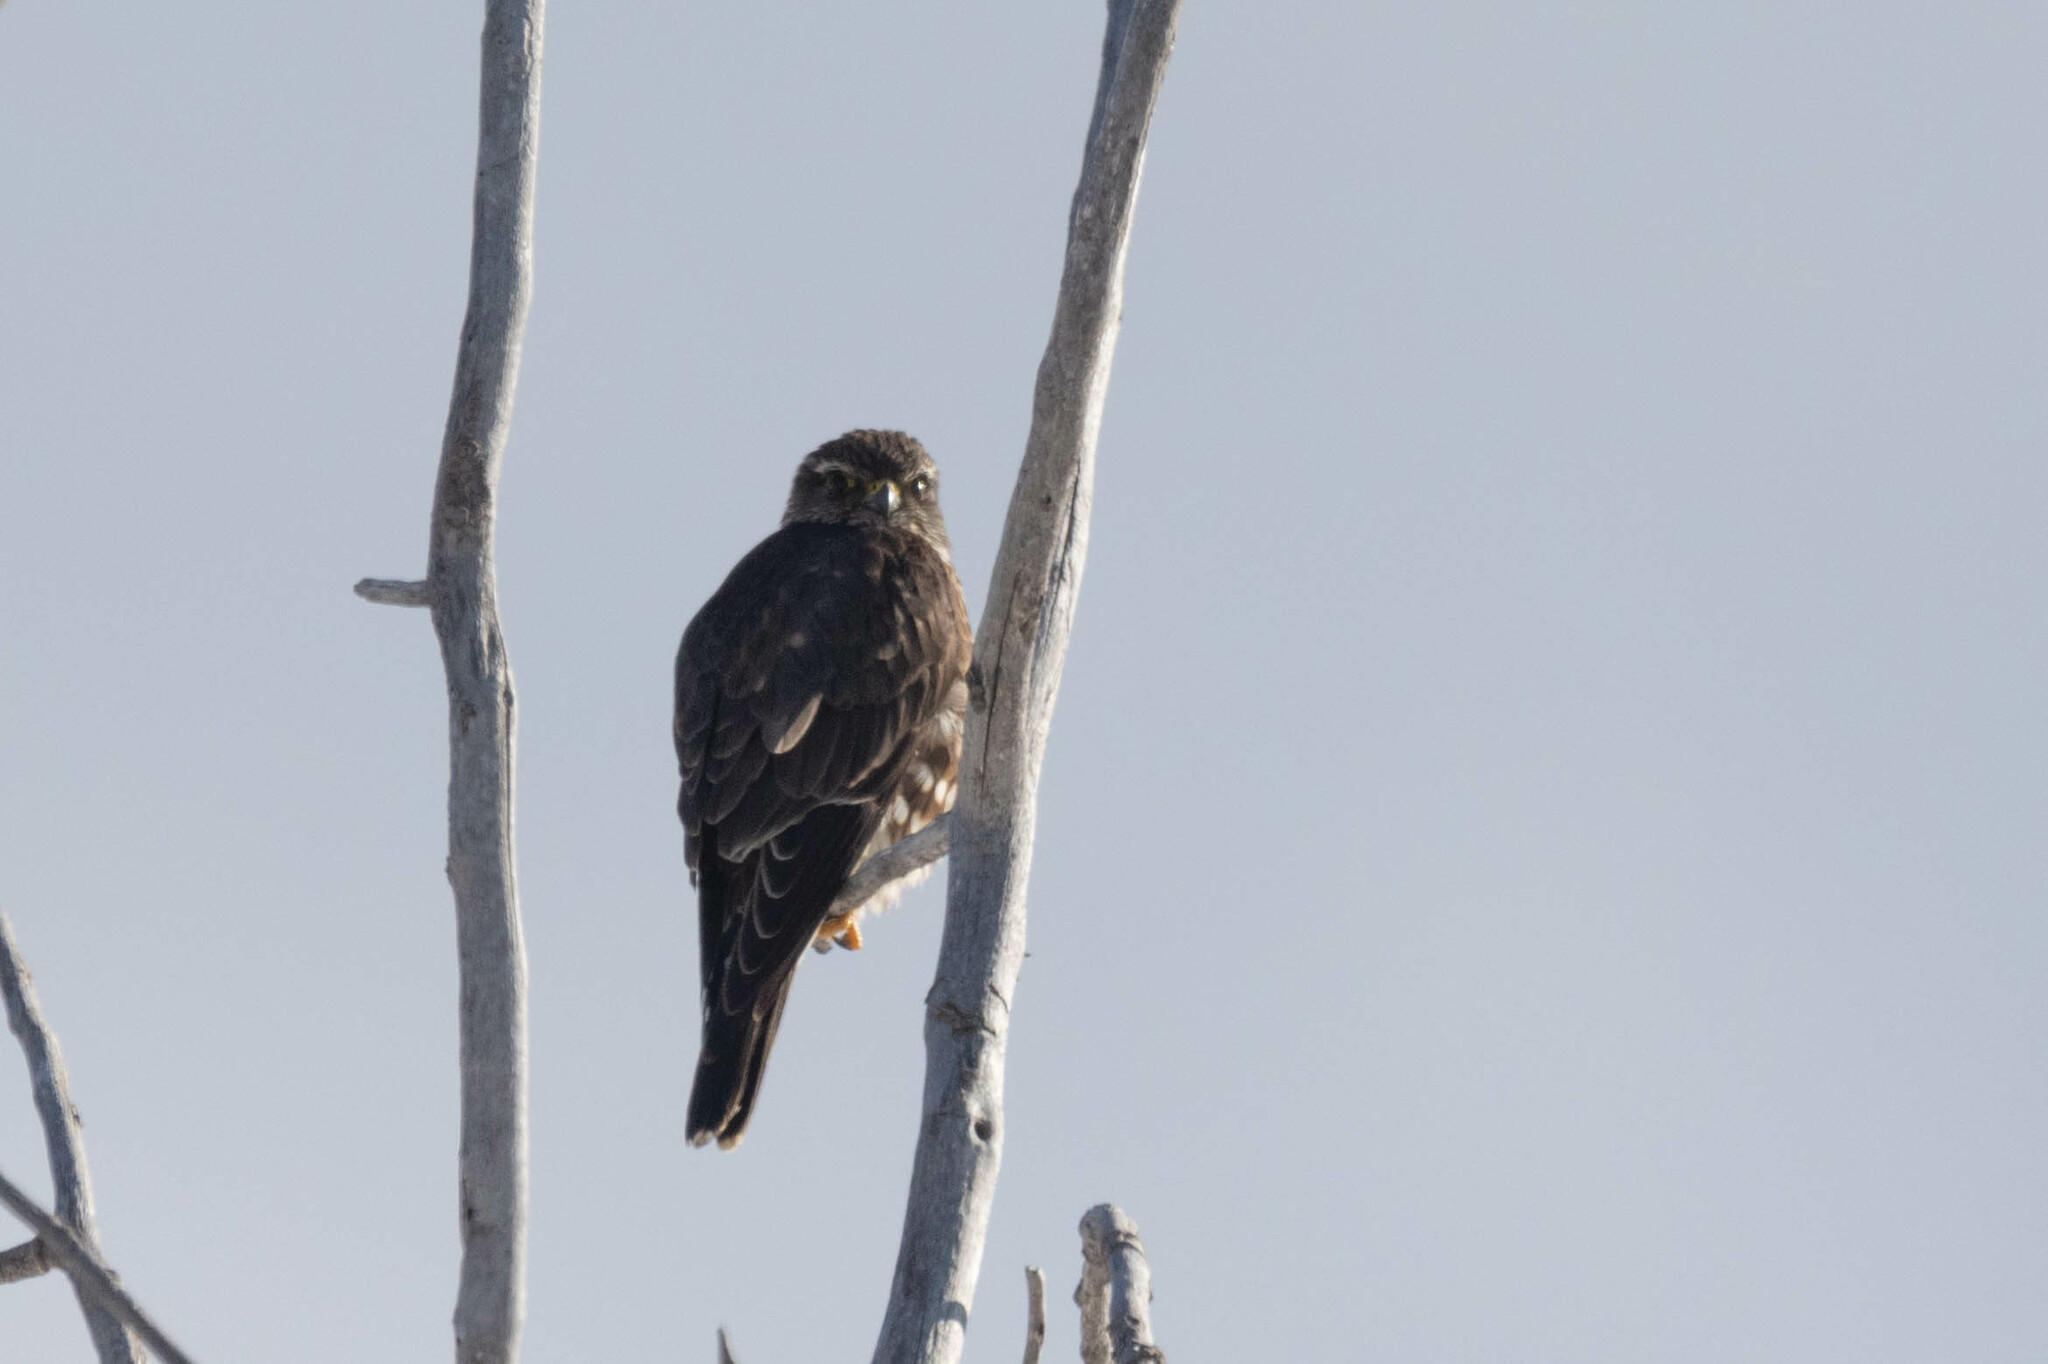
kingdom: Animalia
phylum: Chordata
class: Aves
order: Falconiformes
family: Falconidae
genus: Falco
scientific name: Falco columbarius
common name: Merlin
